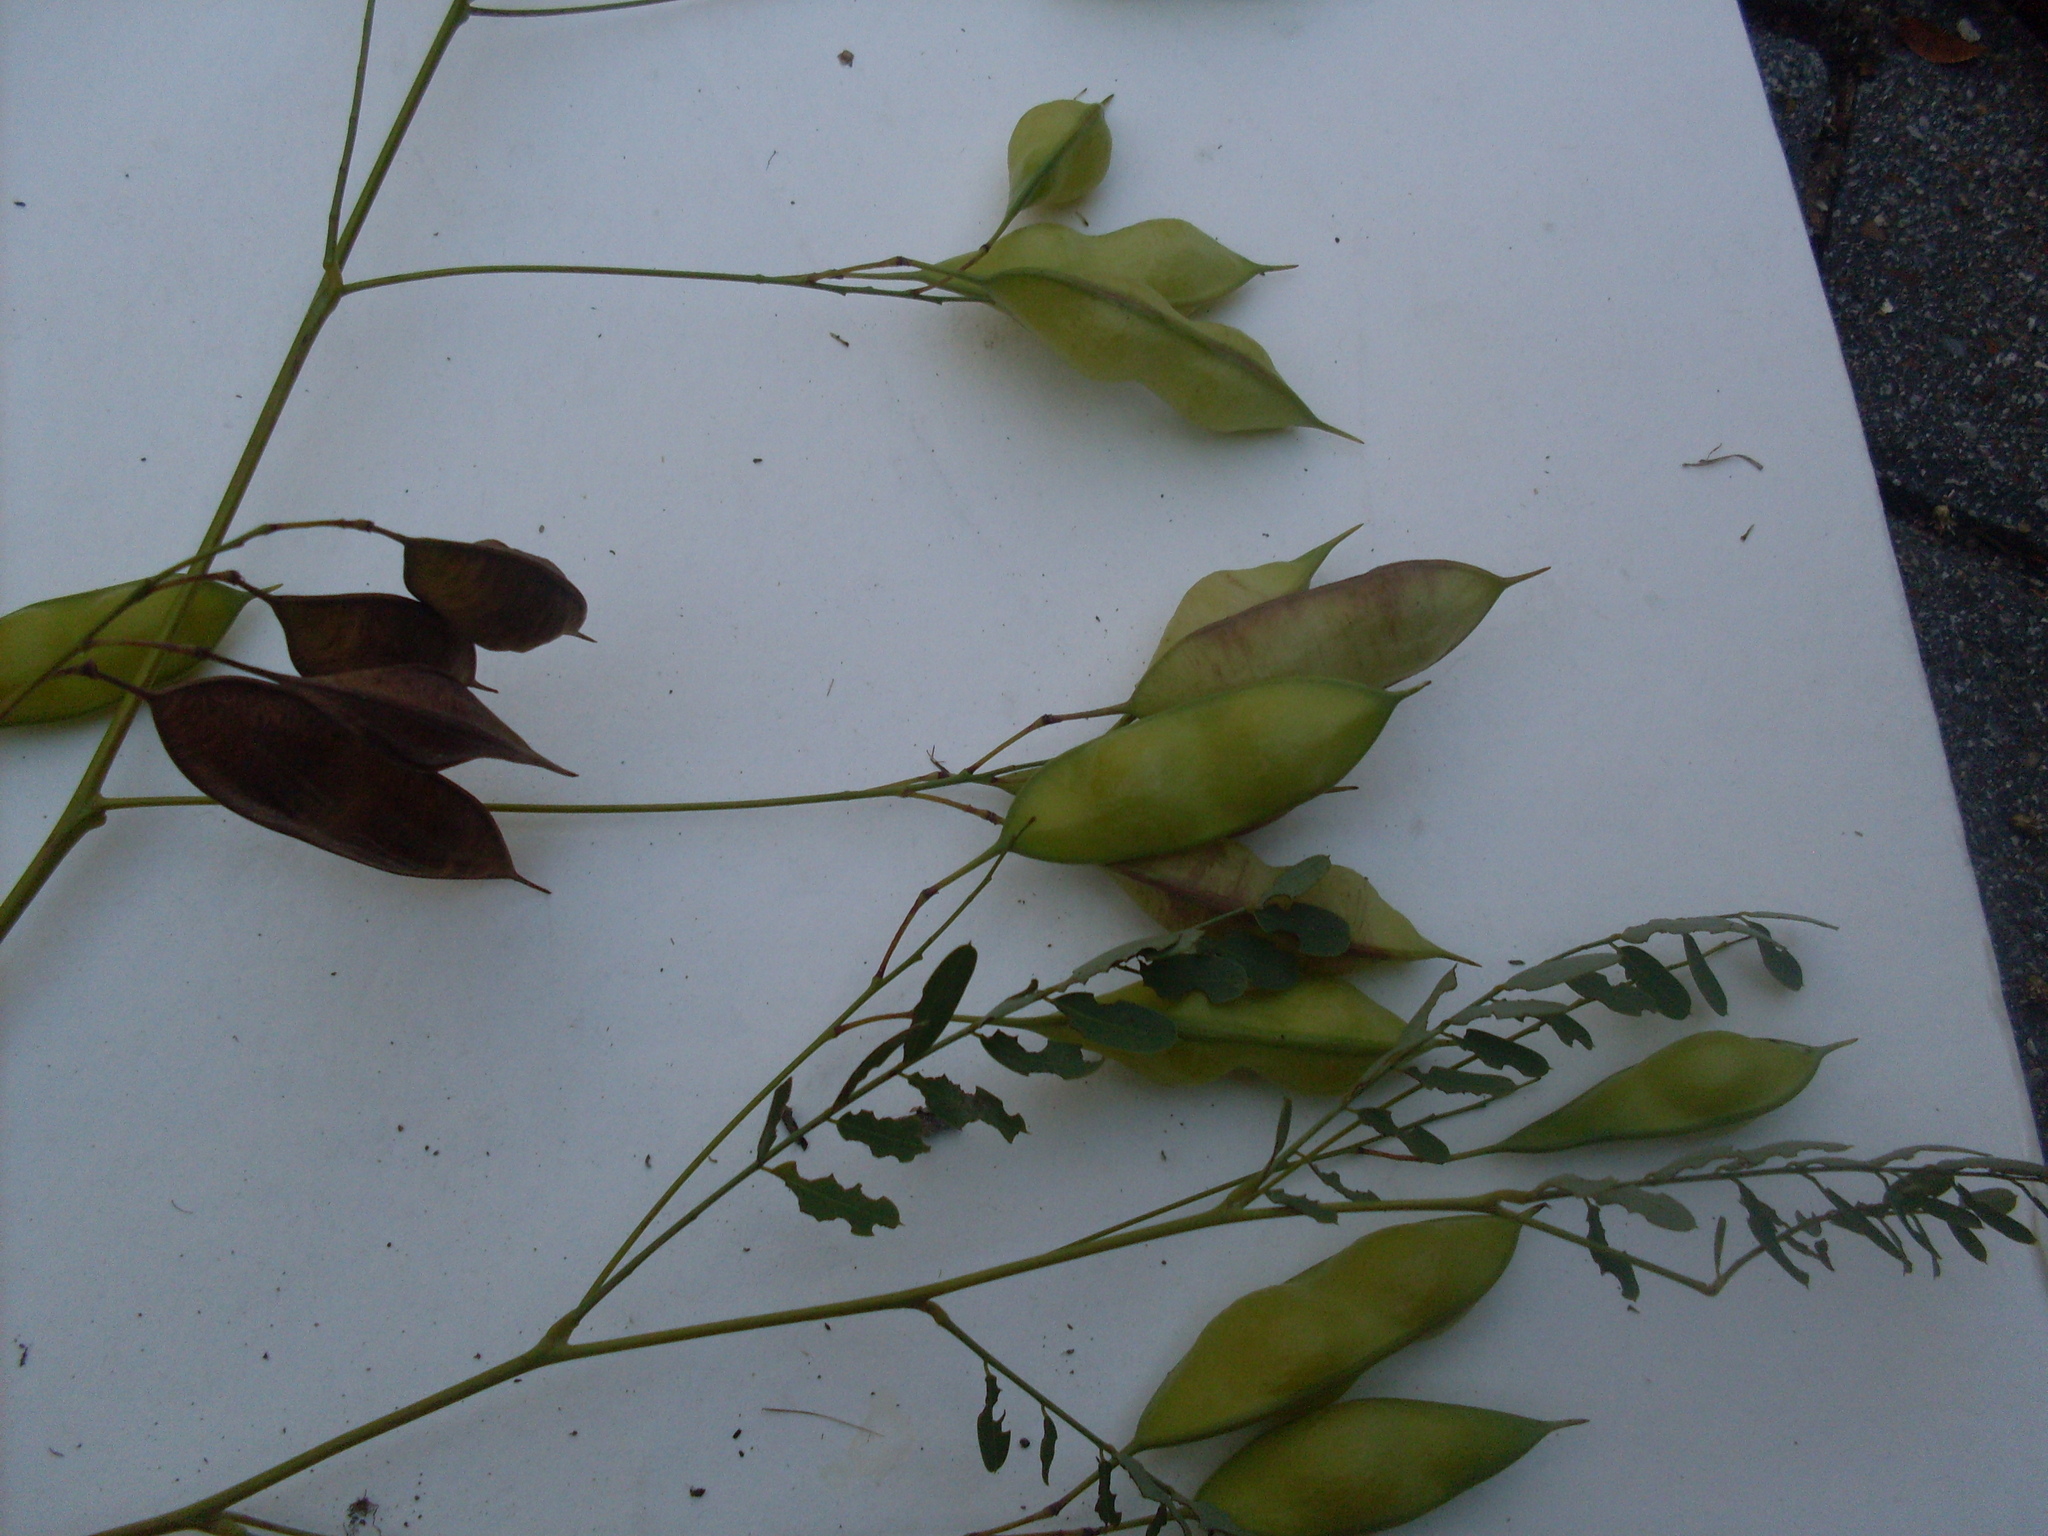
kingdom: Plantae
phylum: Tracheophyta
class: Magnoliopsida
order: Fabales
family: Fabaceae
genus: Sesbania
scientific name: Sesbania vesicaria
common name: Bagpod
